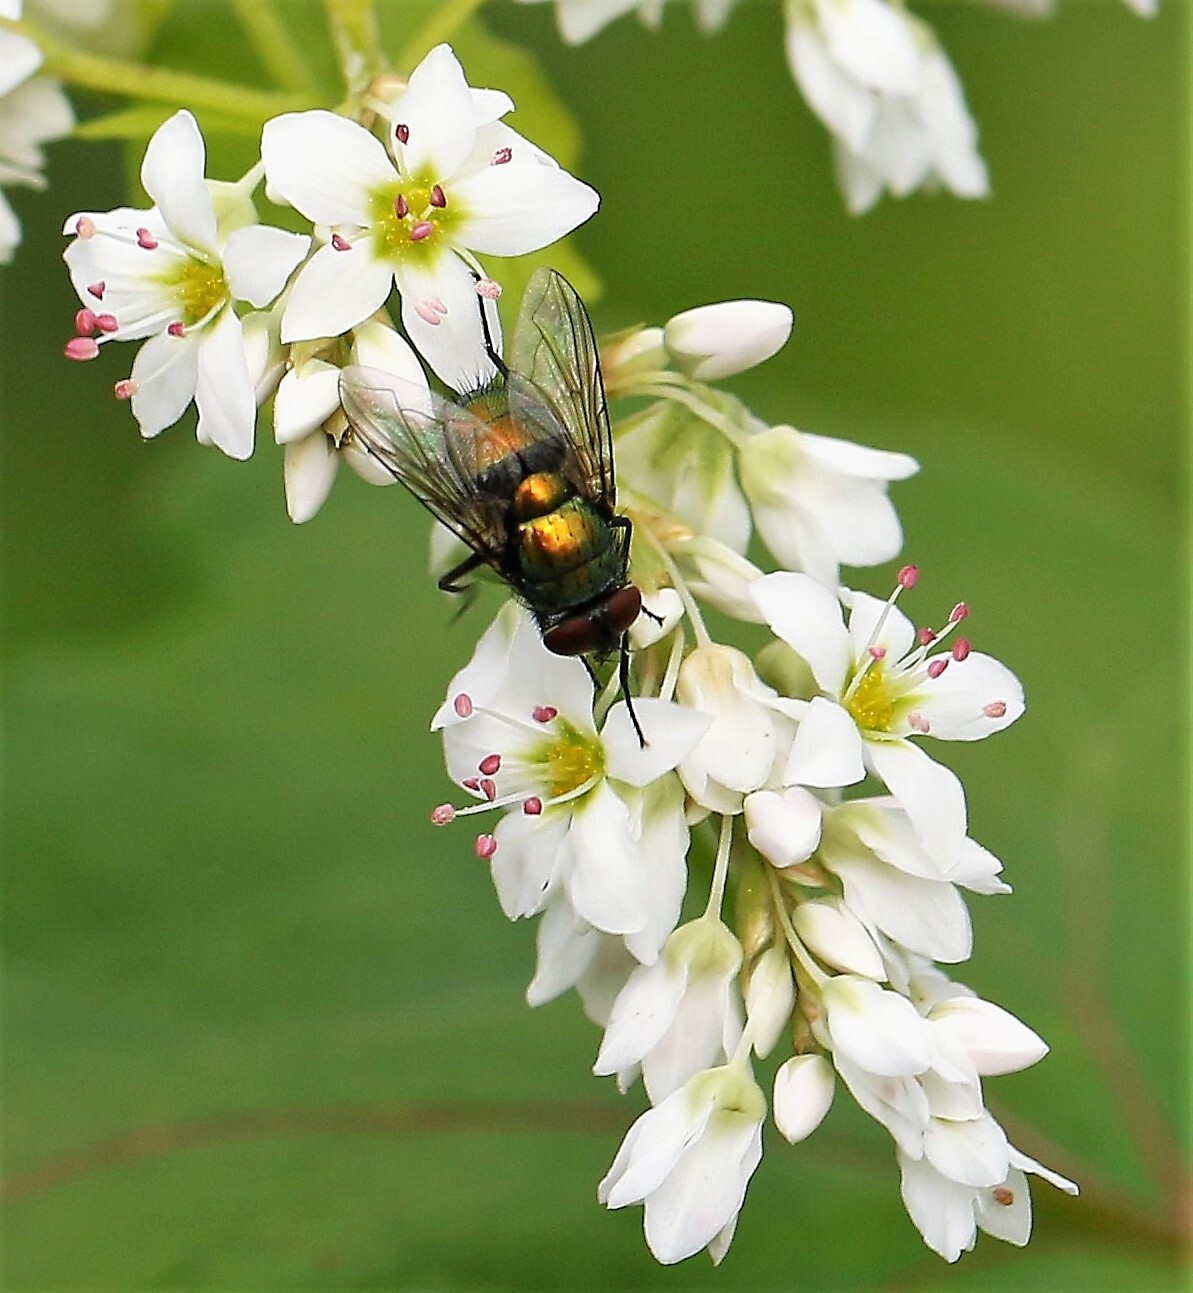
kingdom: Animalia
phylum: Arthropoda
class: Insecta
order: Diptera
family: Calliphoridae
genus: Lucilia
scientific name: Lucilia sericata
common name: Blow fly
